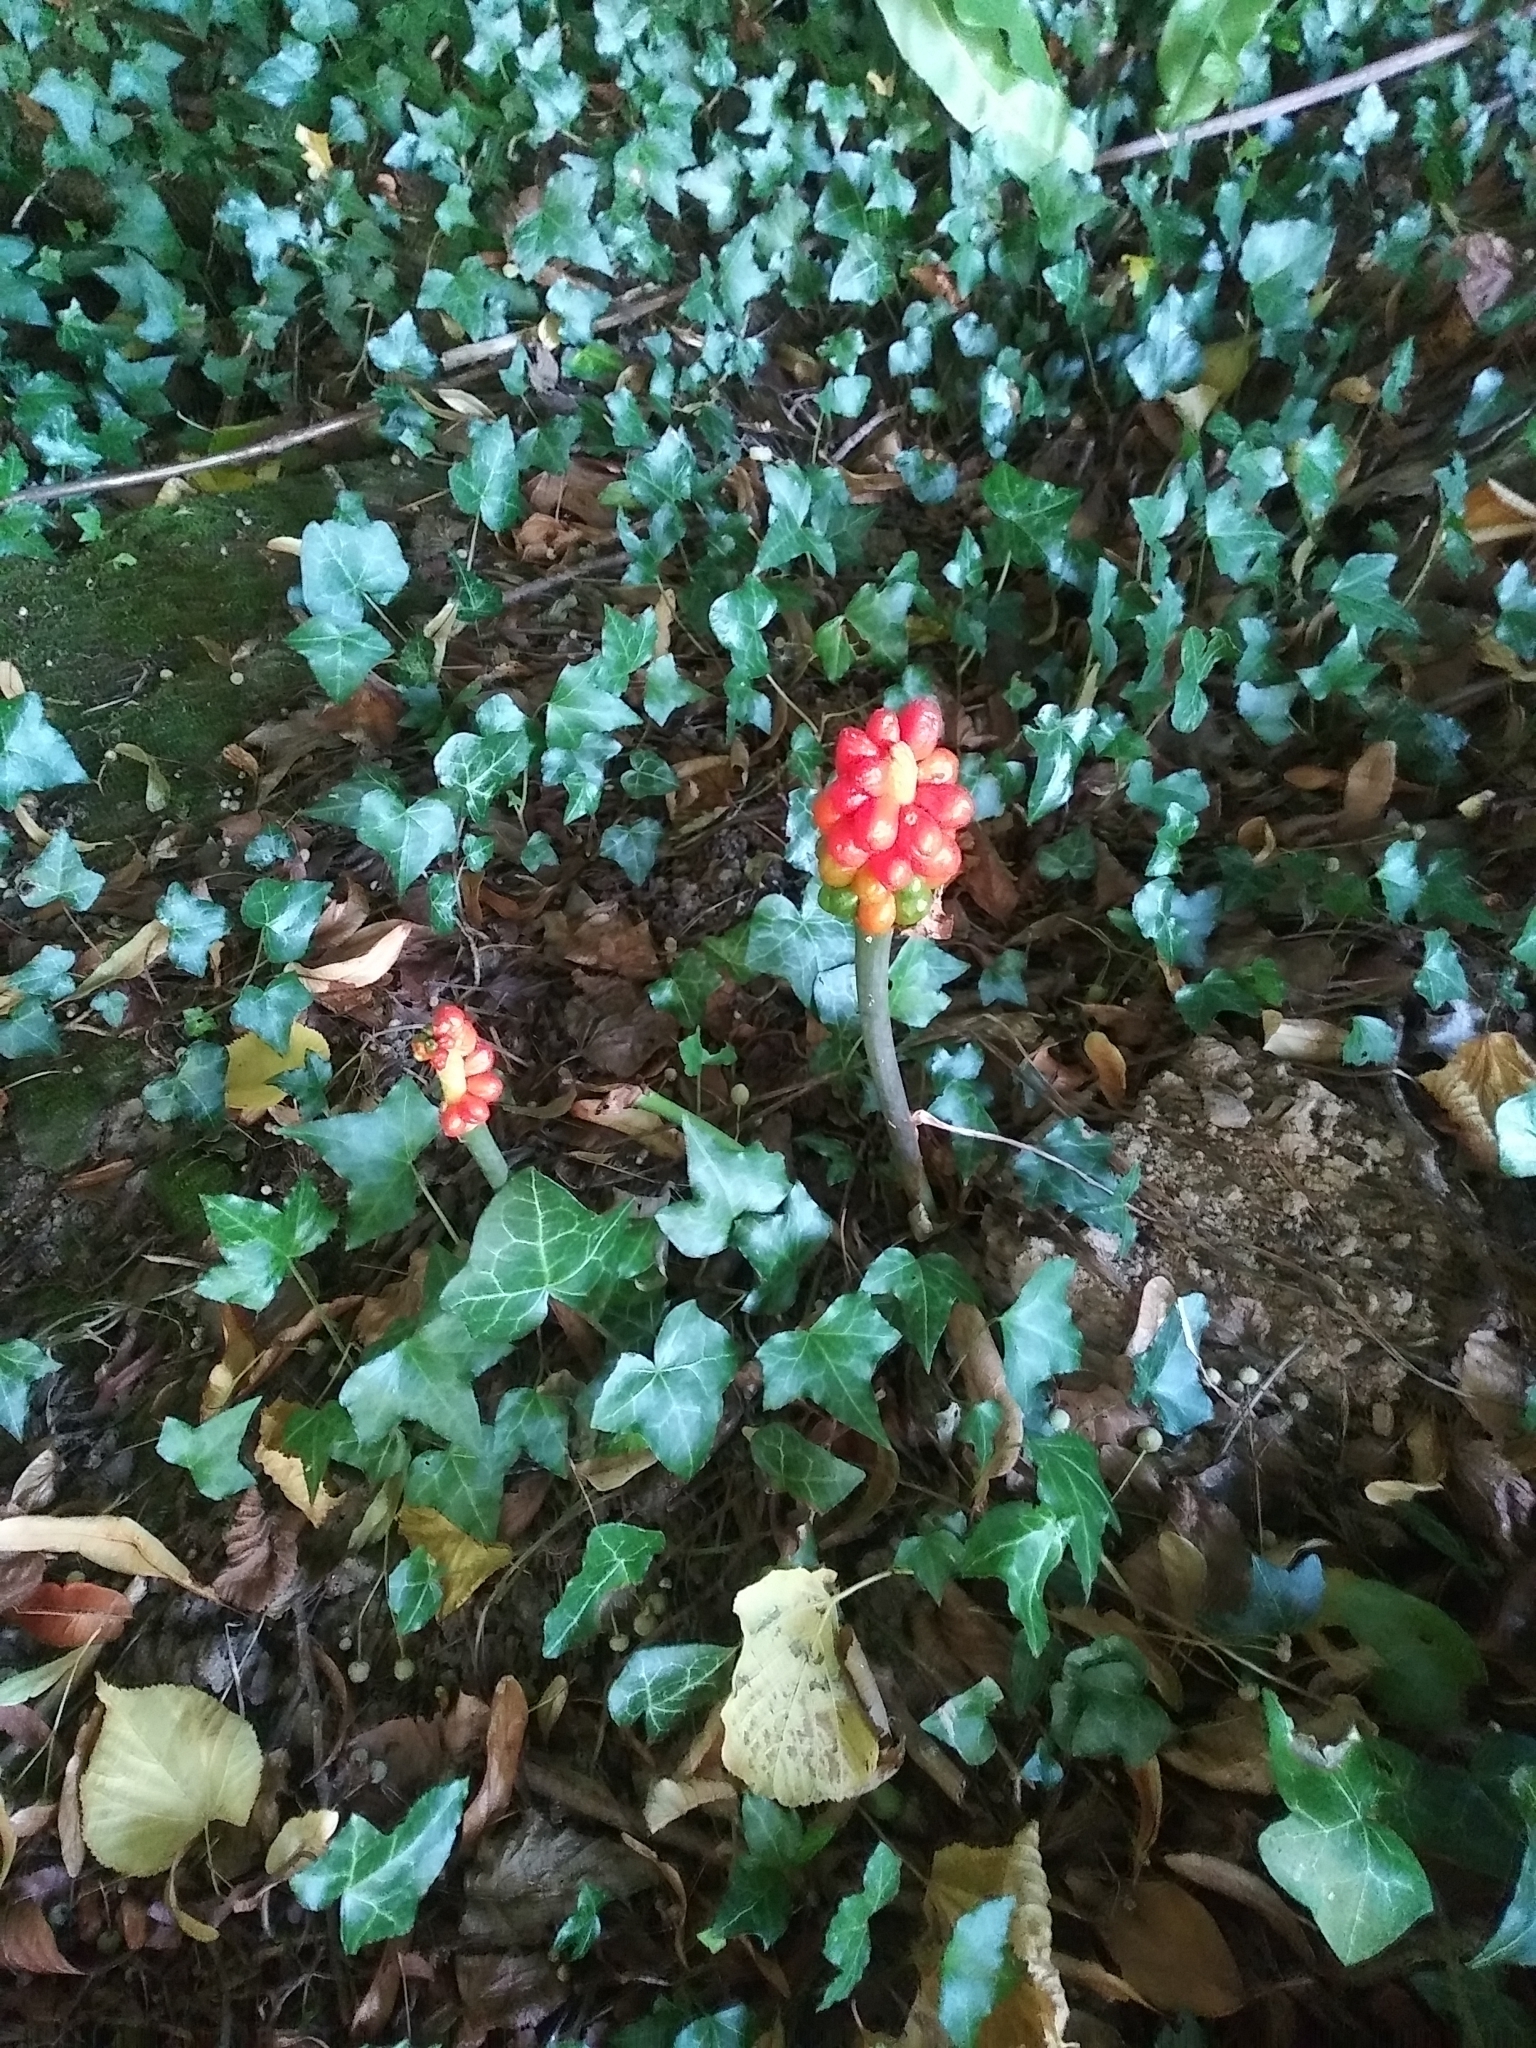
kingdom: Plantae
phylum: Tracheophyta
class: Liliopsida
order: Alismatales
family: Araceae
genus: Arum
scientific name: Arum maculatum
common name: Lords-and-ladies
